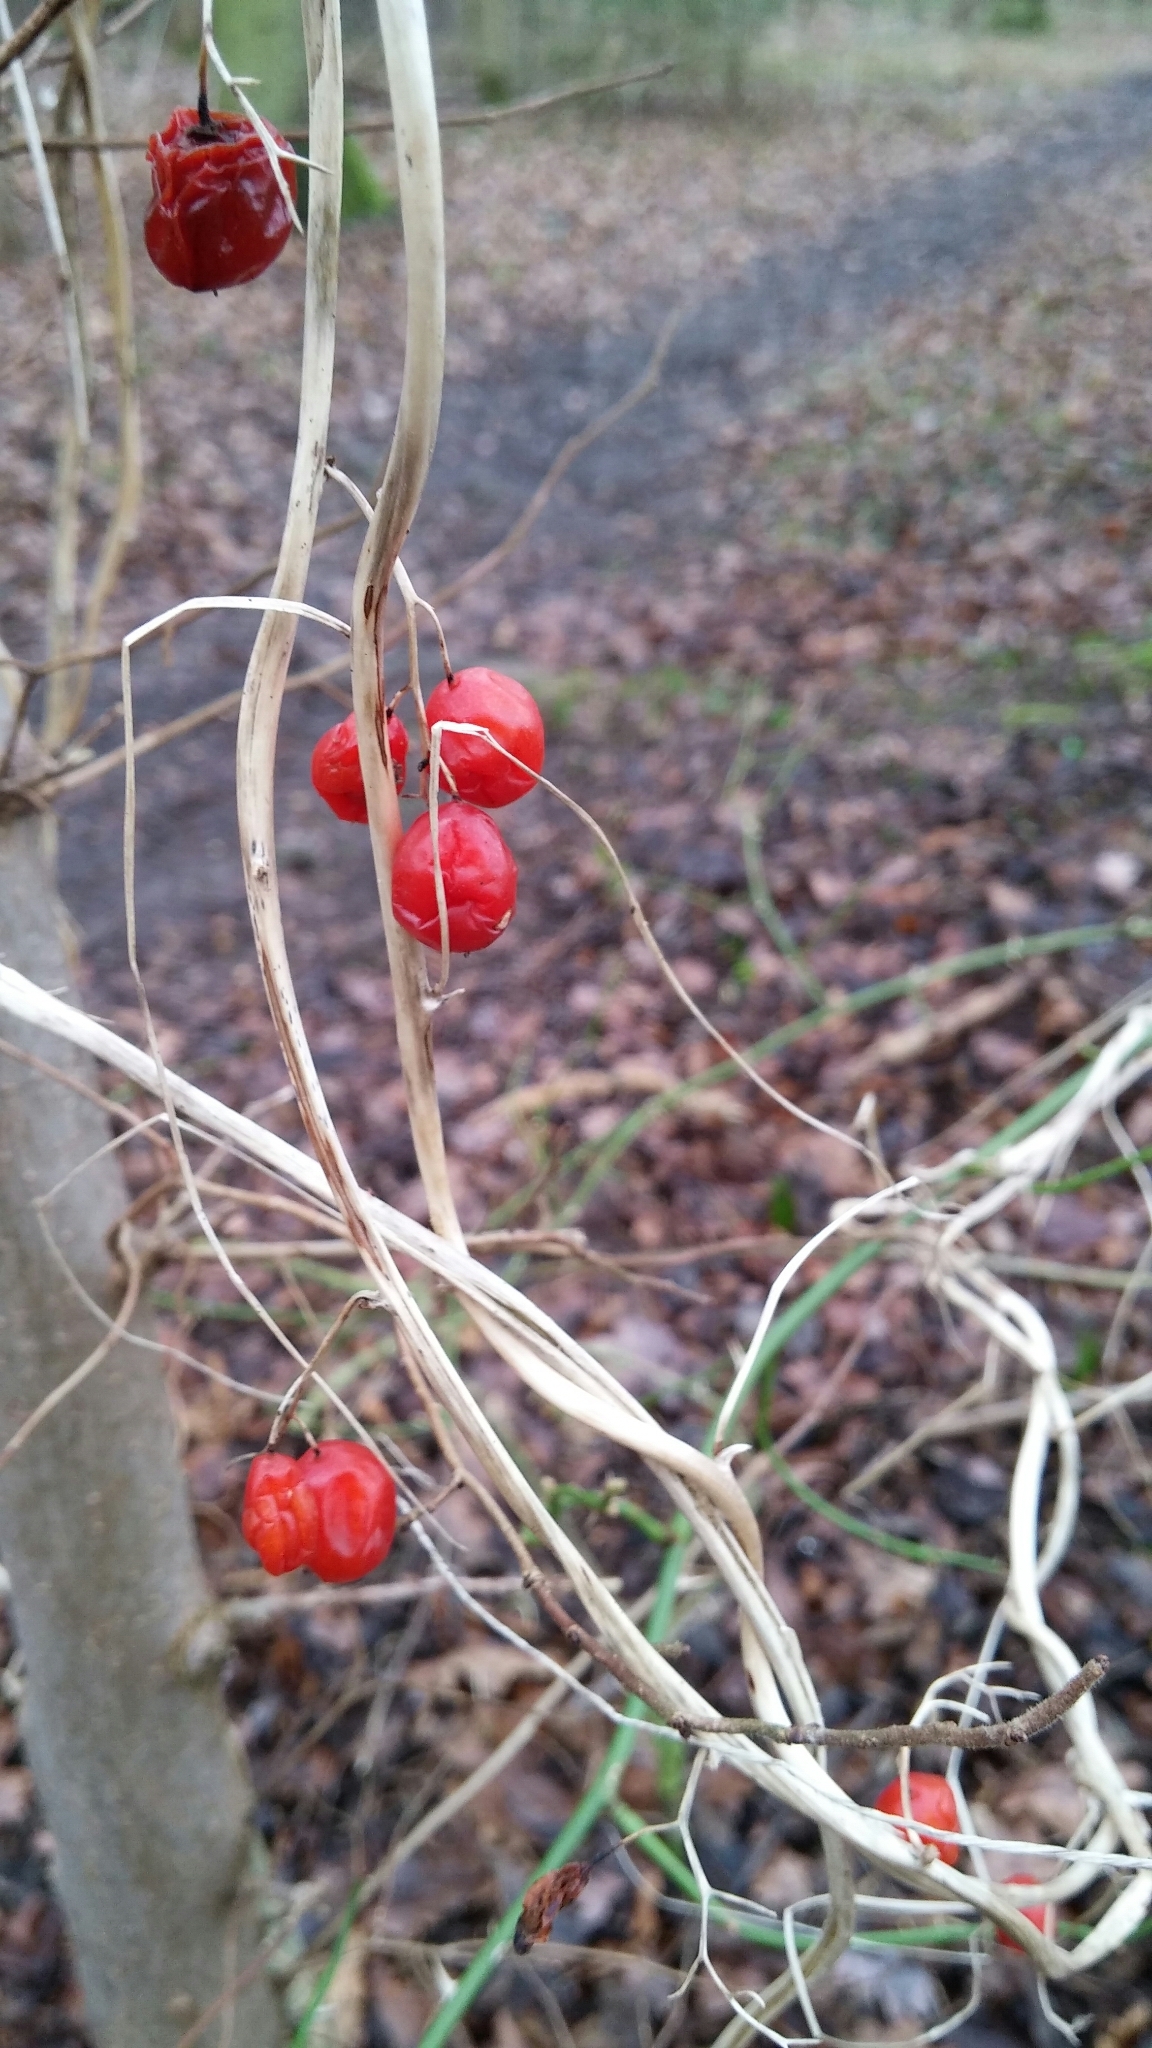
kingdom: Plantae
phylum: Tracheophyta
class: Liliopsida
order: Dioscoreales
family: Dioscoreaceae
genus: Dioscorea
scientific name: Dioscorea communis
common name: Black-bindweed
